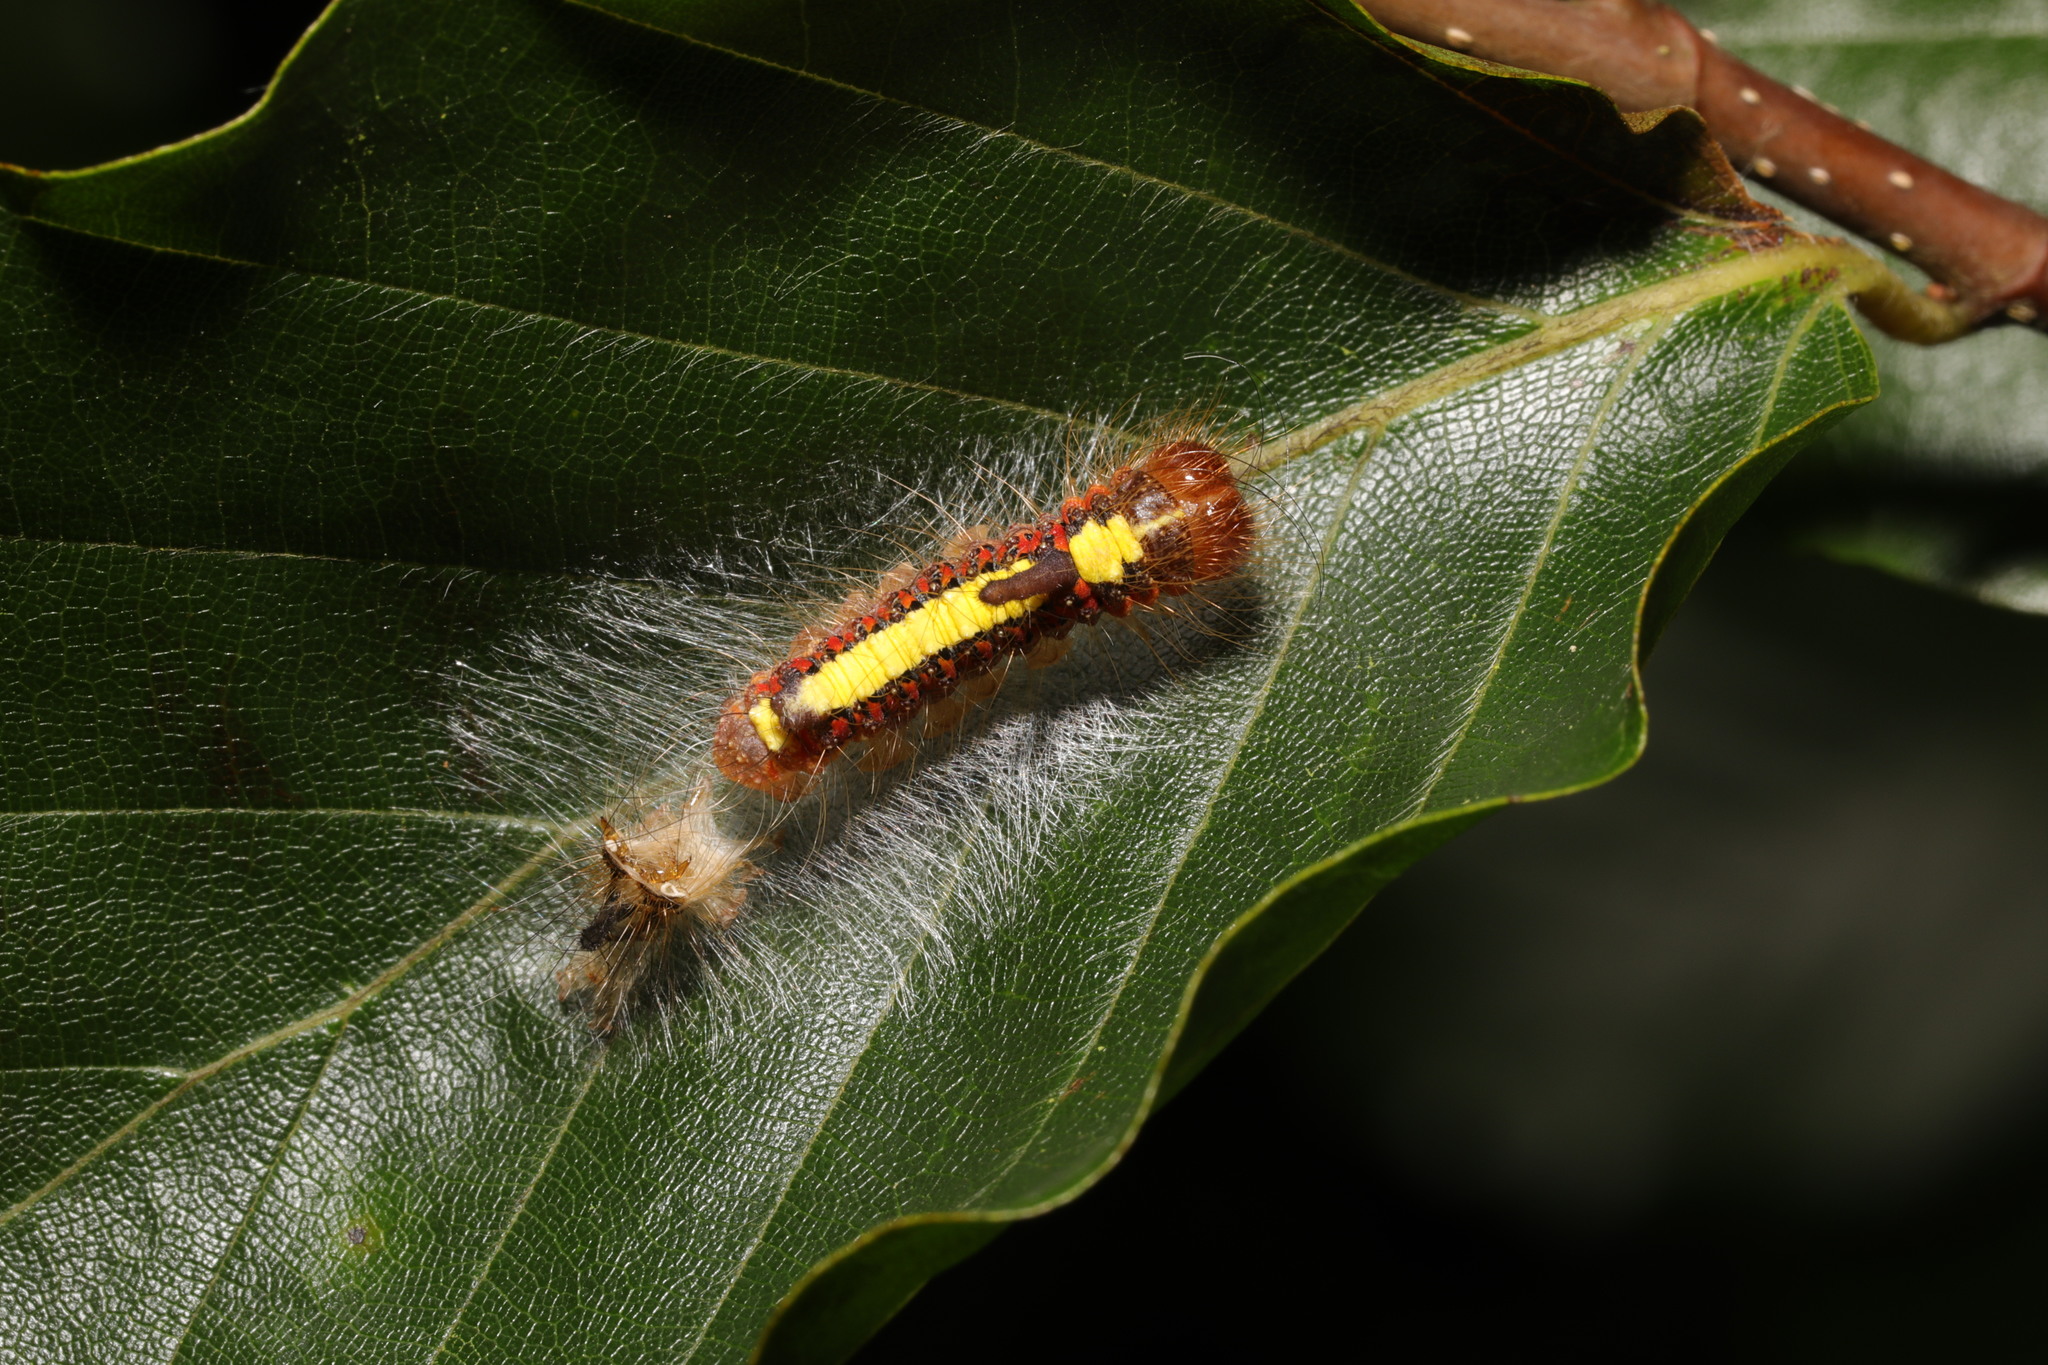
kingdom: Animalia
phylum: Arthropoda
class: Insecta
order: Lepidoptera
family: Noctuidae
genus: Acronicta
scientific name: Acronicta psi
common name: Grey dagger
